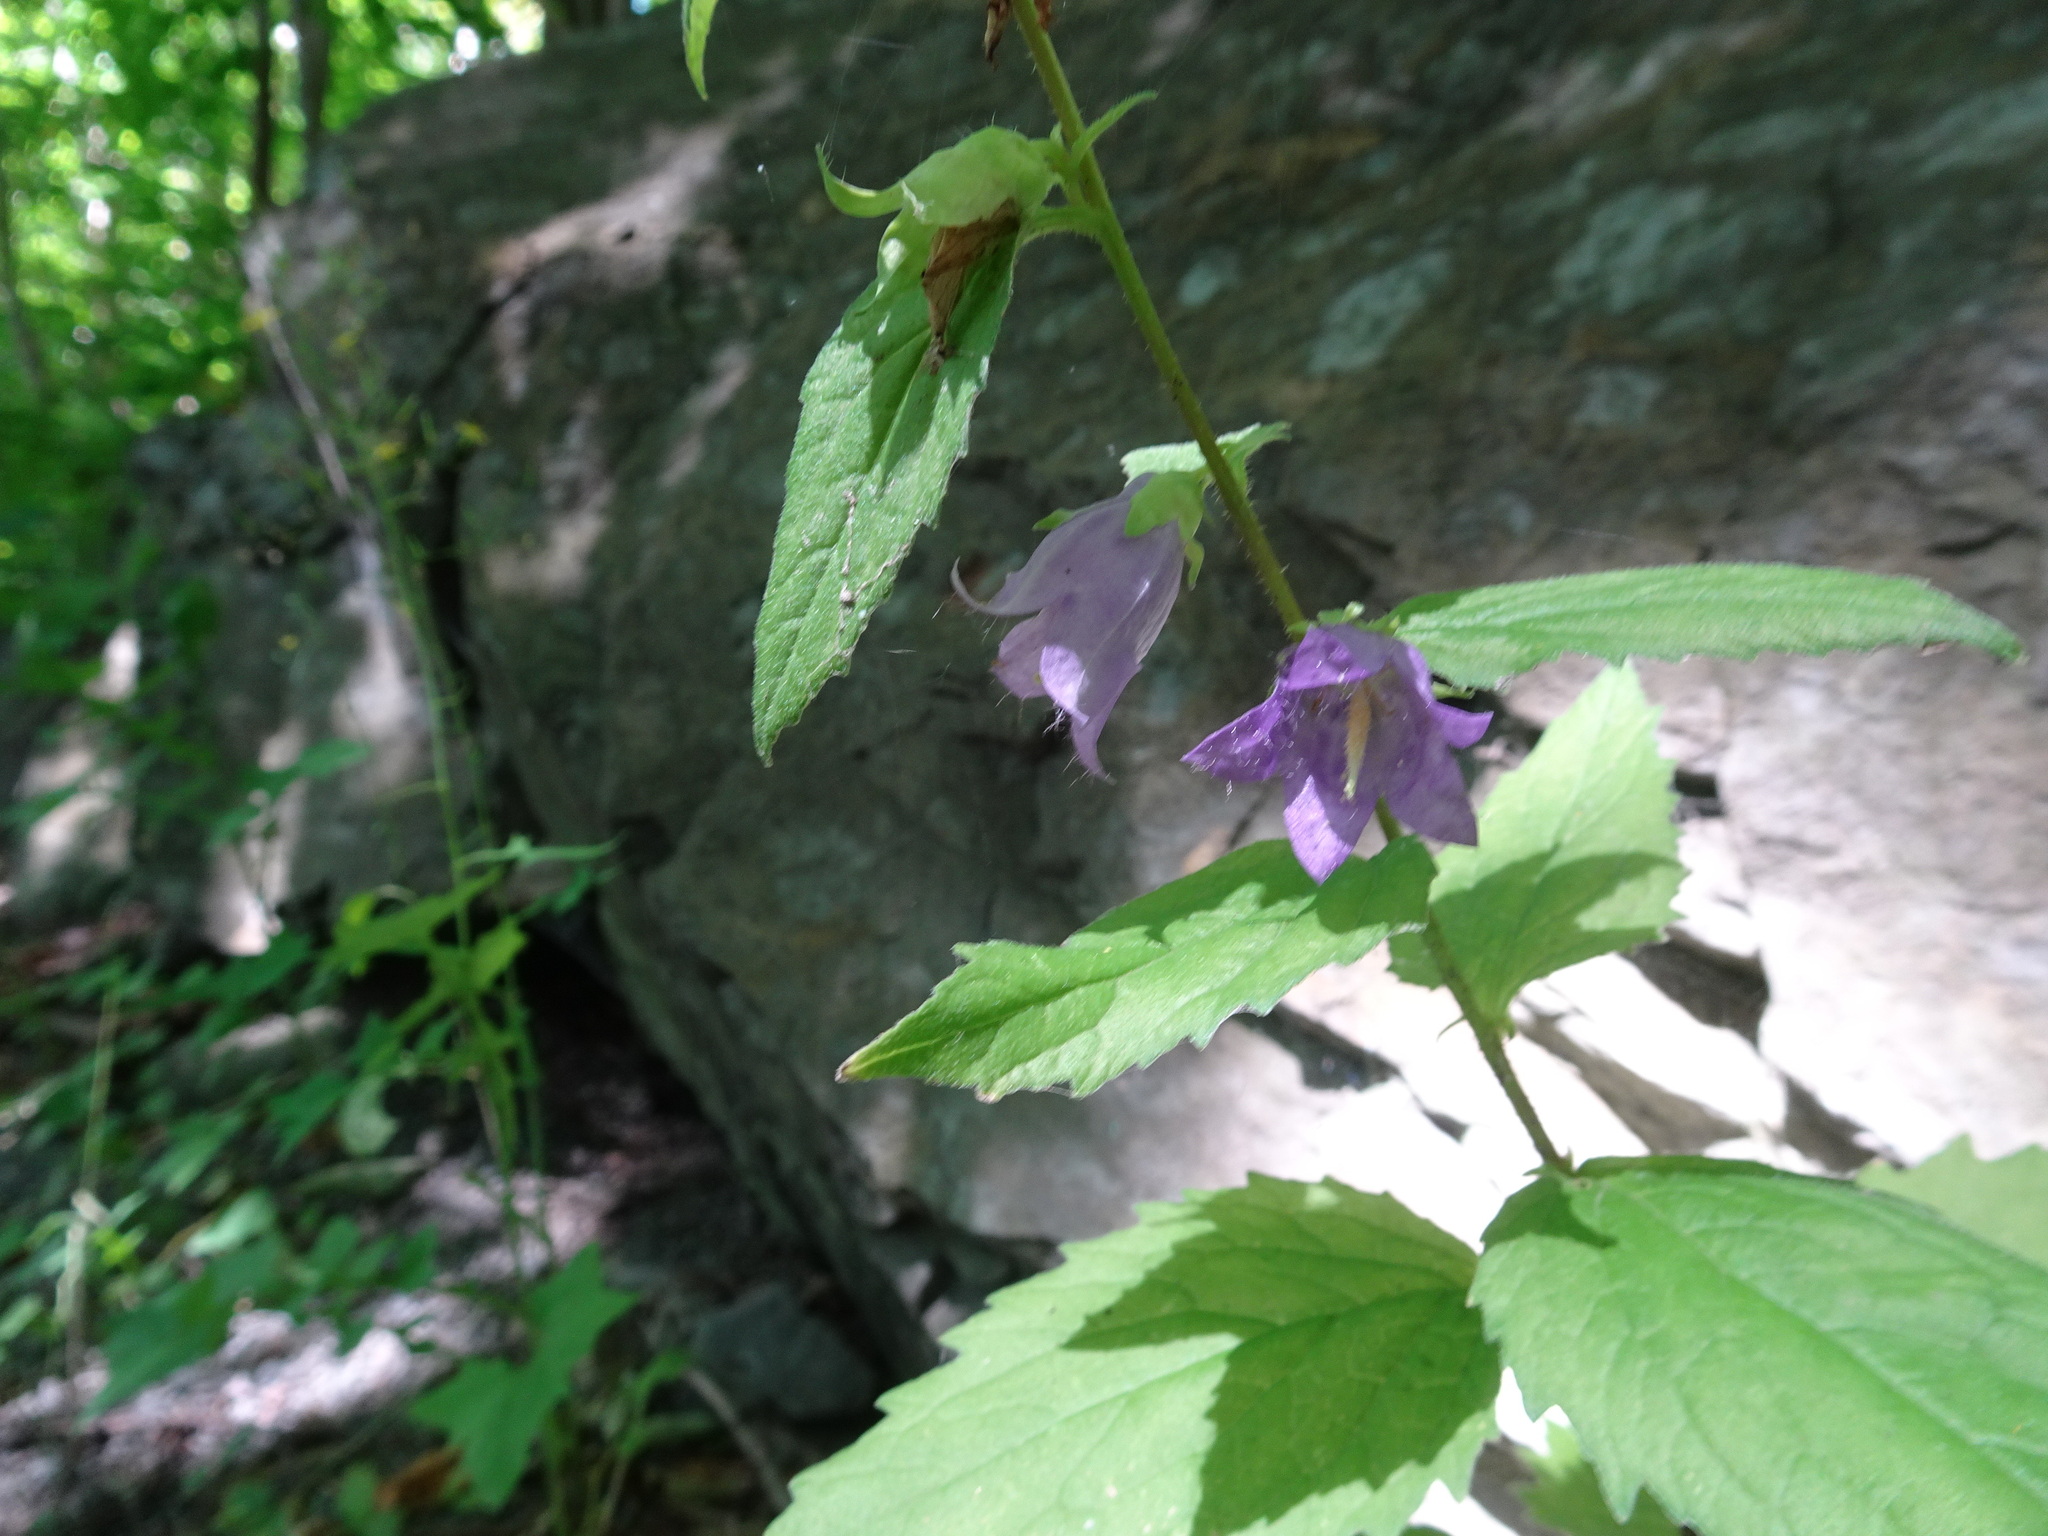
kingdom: Plantae
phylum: Tracheophyta
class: Magnoliopsida
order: Asterales
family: Campanulaceae
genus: Campanula
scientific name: Campanula trachelium
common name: Nettle-leaved bellflower
